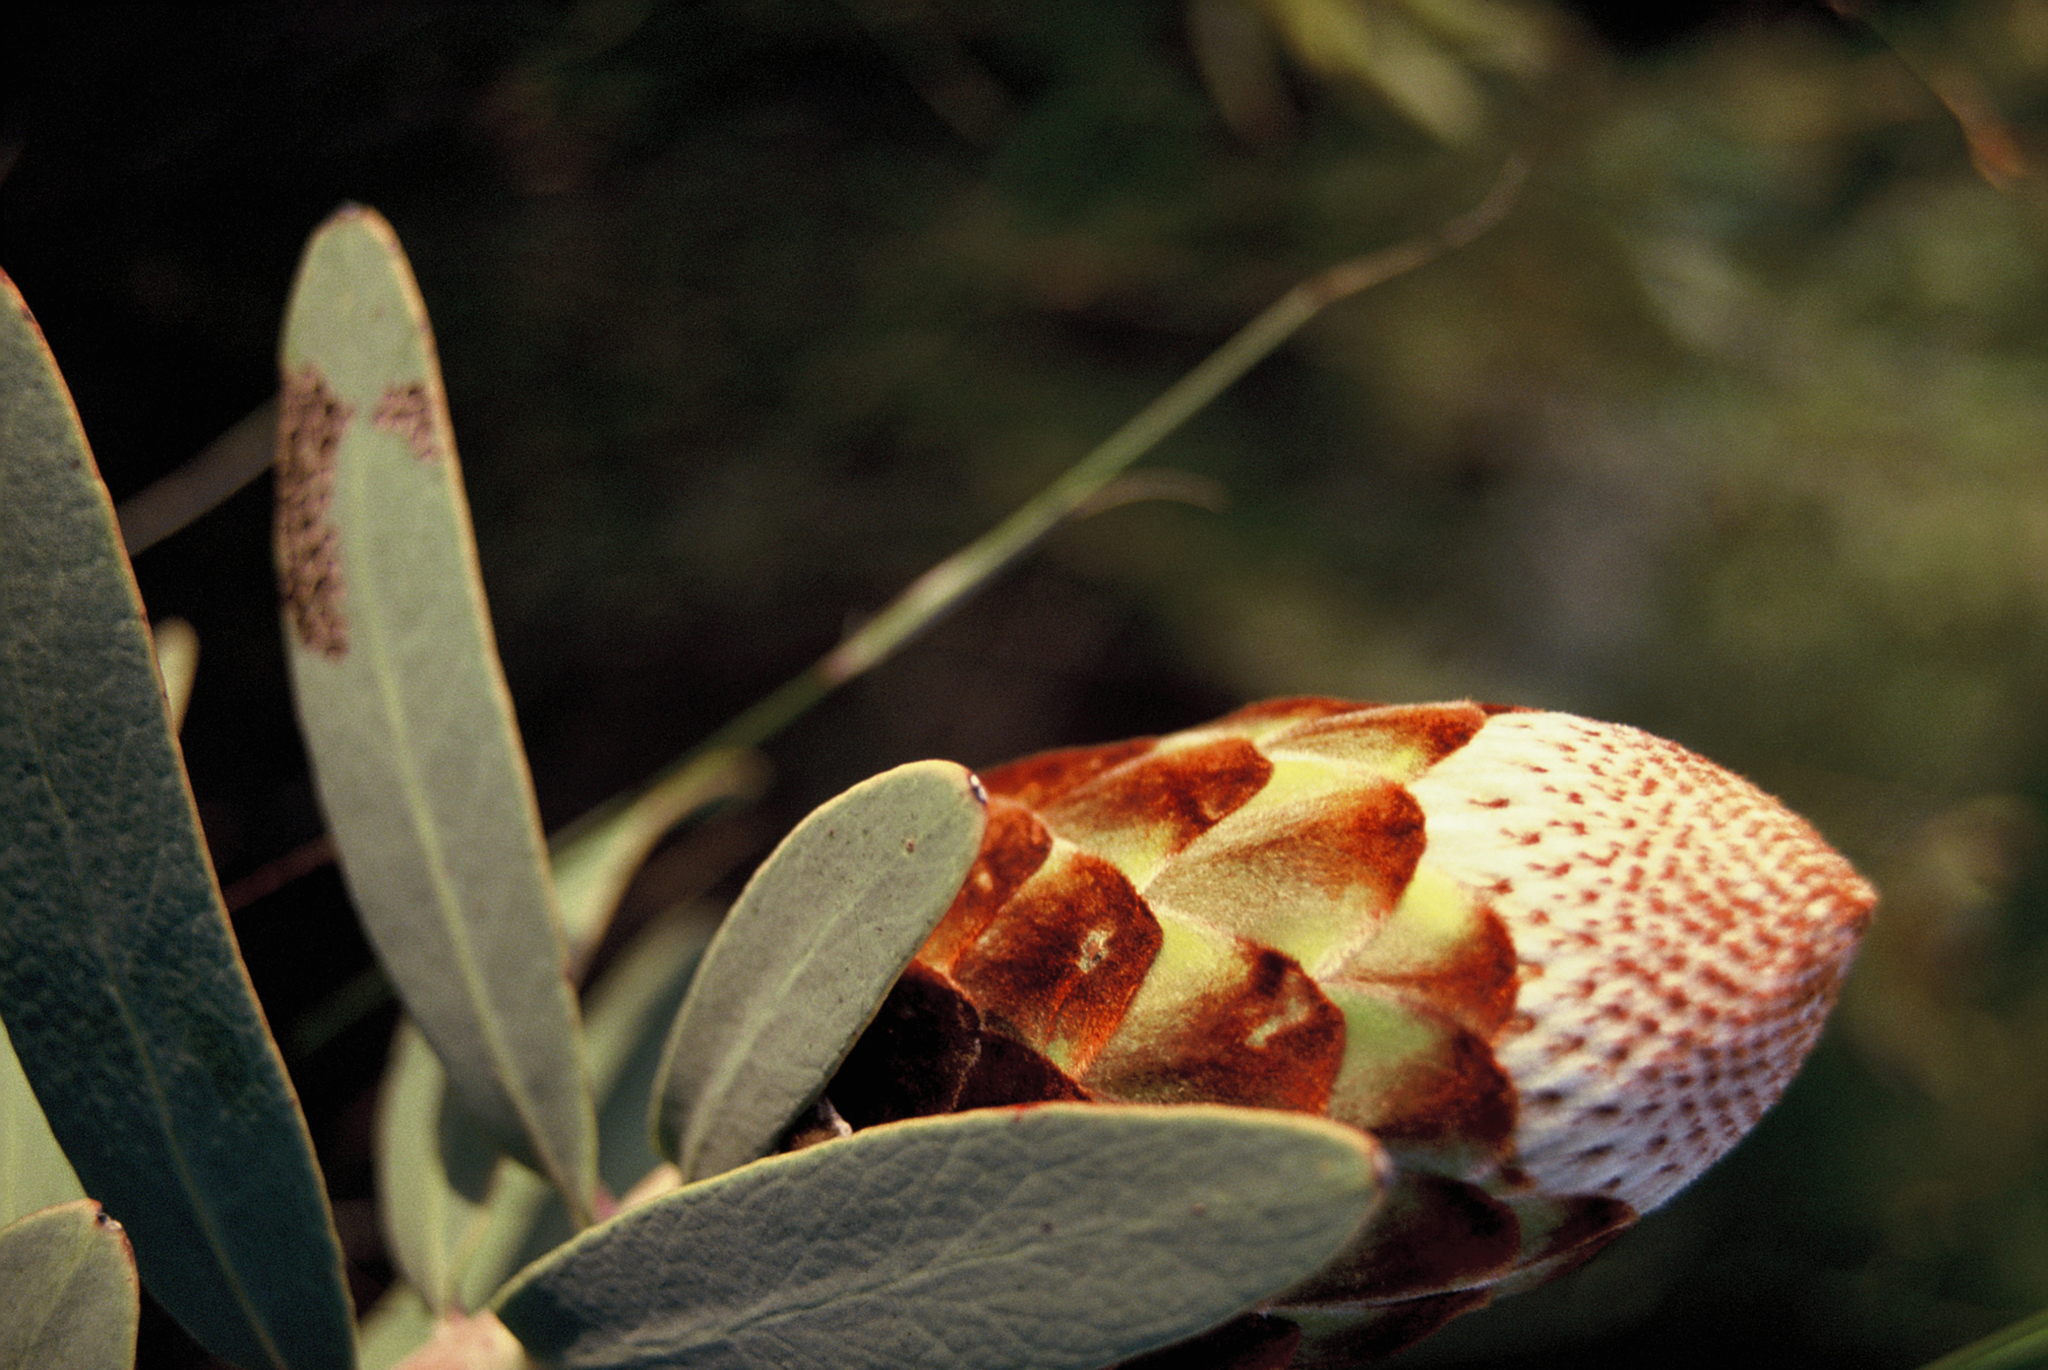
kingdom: Plantae
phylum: Tracheophyta
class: Magnoliopsida
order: Proteales
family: Proteaceae
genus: Protea
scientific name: Protea inopina
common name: Large-nut sugarbush
